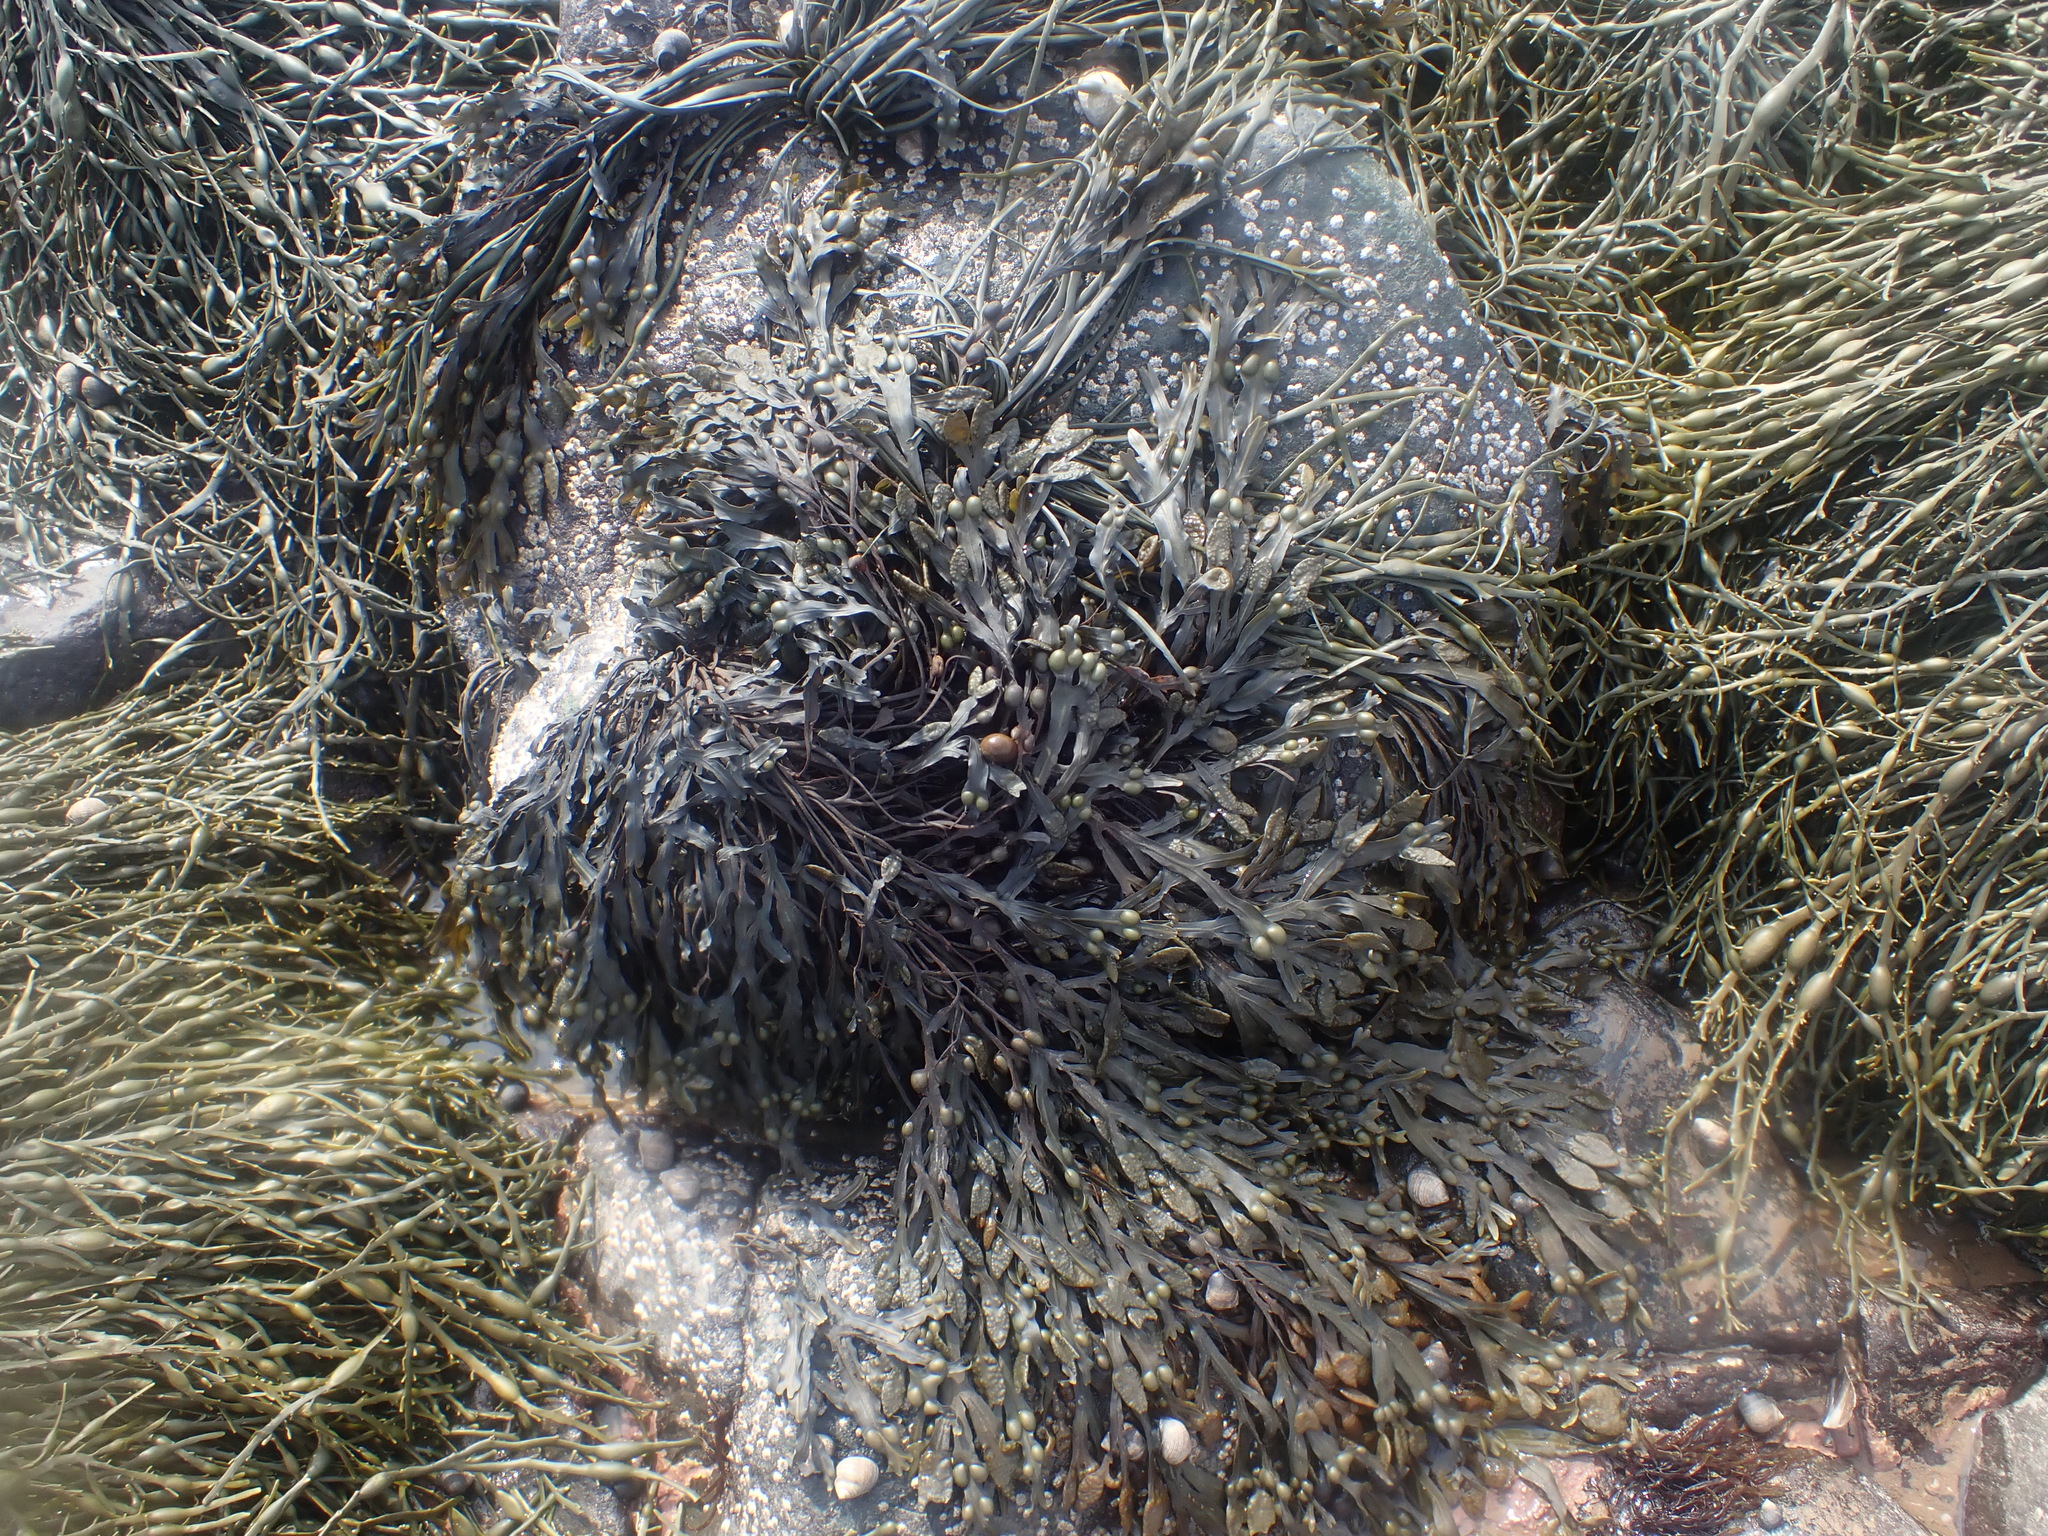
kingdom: Chromista
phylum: Ochrophyta
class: Phaeophyceae
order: Fucales
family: Fucaceae
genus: Fucus
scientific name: Fucus vesiculosus
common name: Bladder wrack
